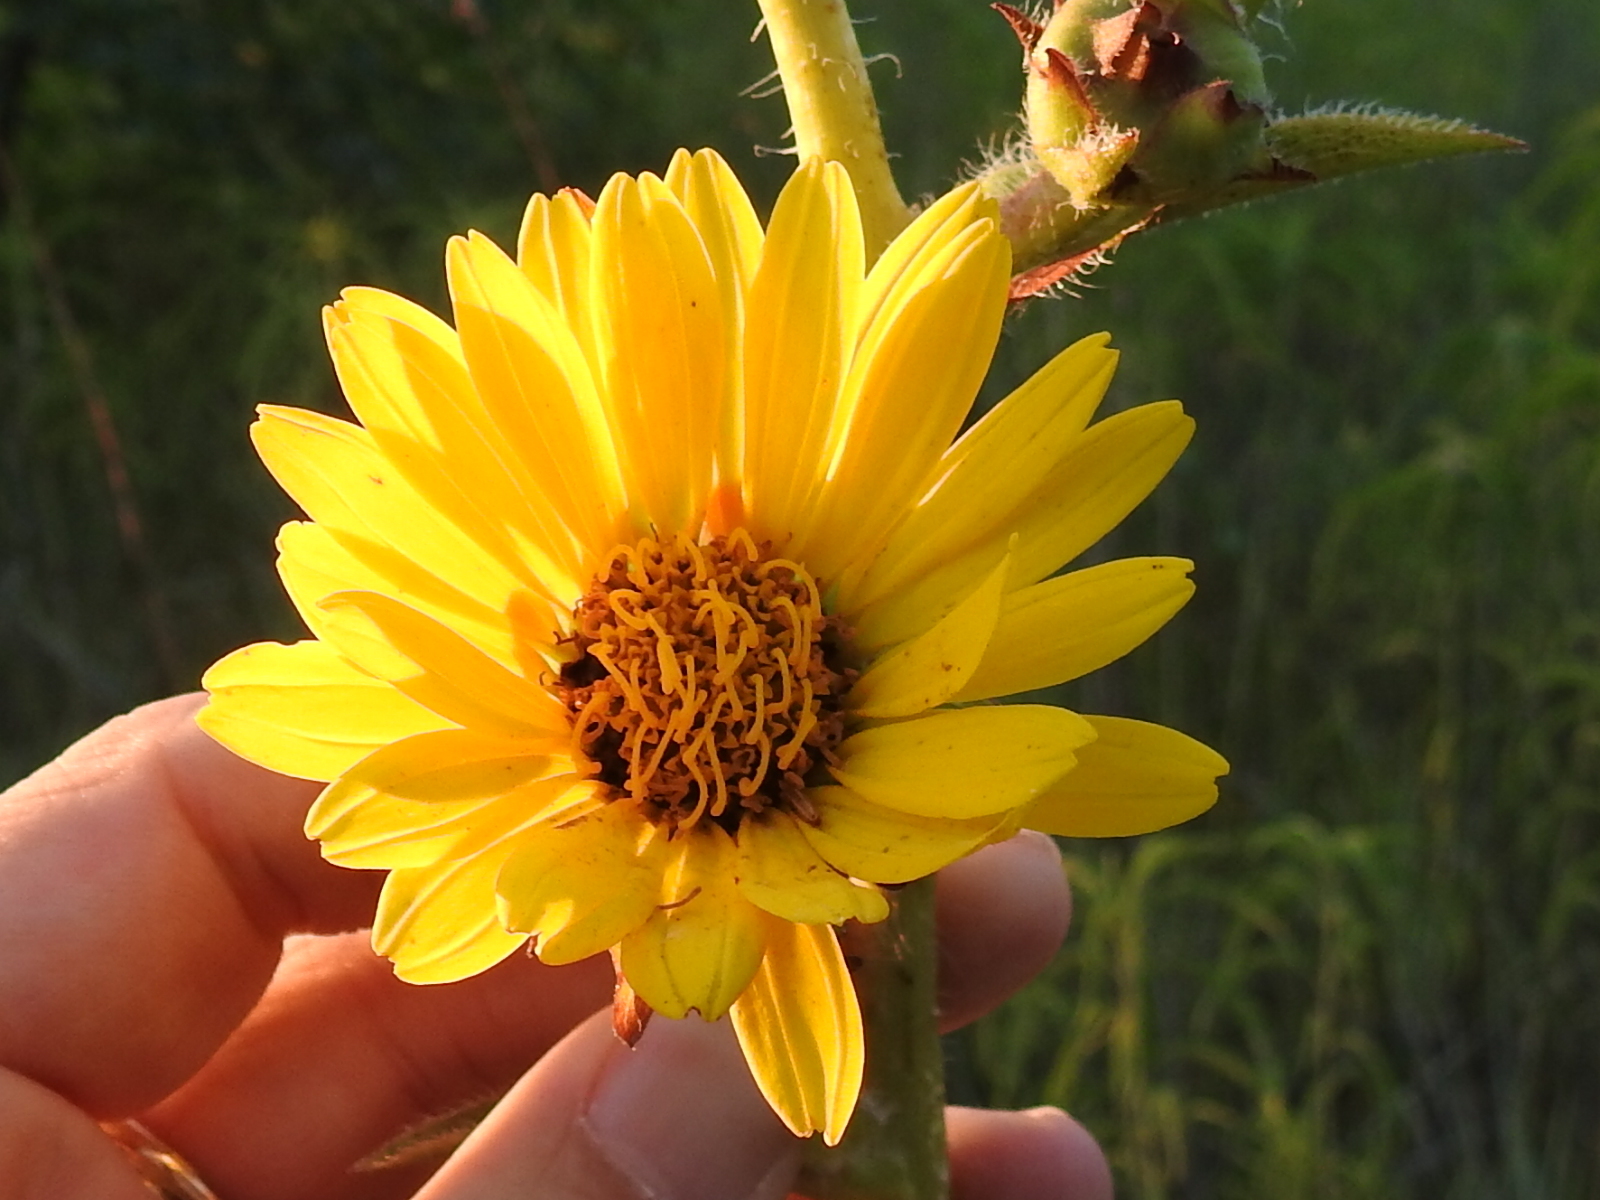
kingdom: Plantae
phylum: Tracheophyta
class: Magnoliopsida
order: Asterales
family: Asteraceae
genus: Silphium
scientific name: Silphium laciniatum
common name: Polarplant
